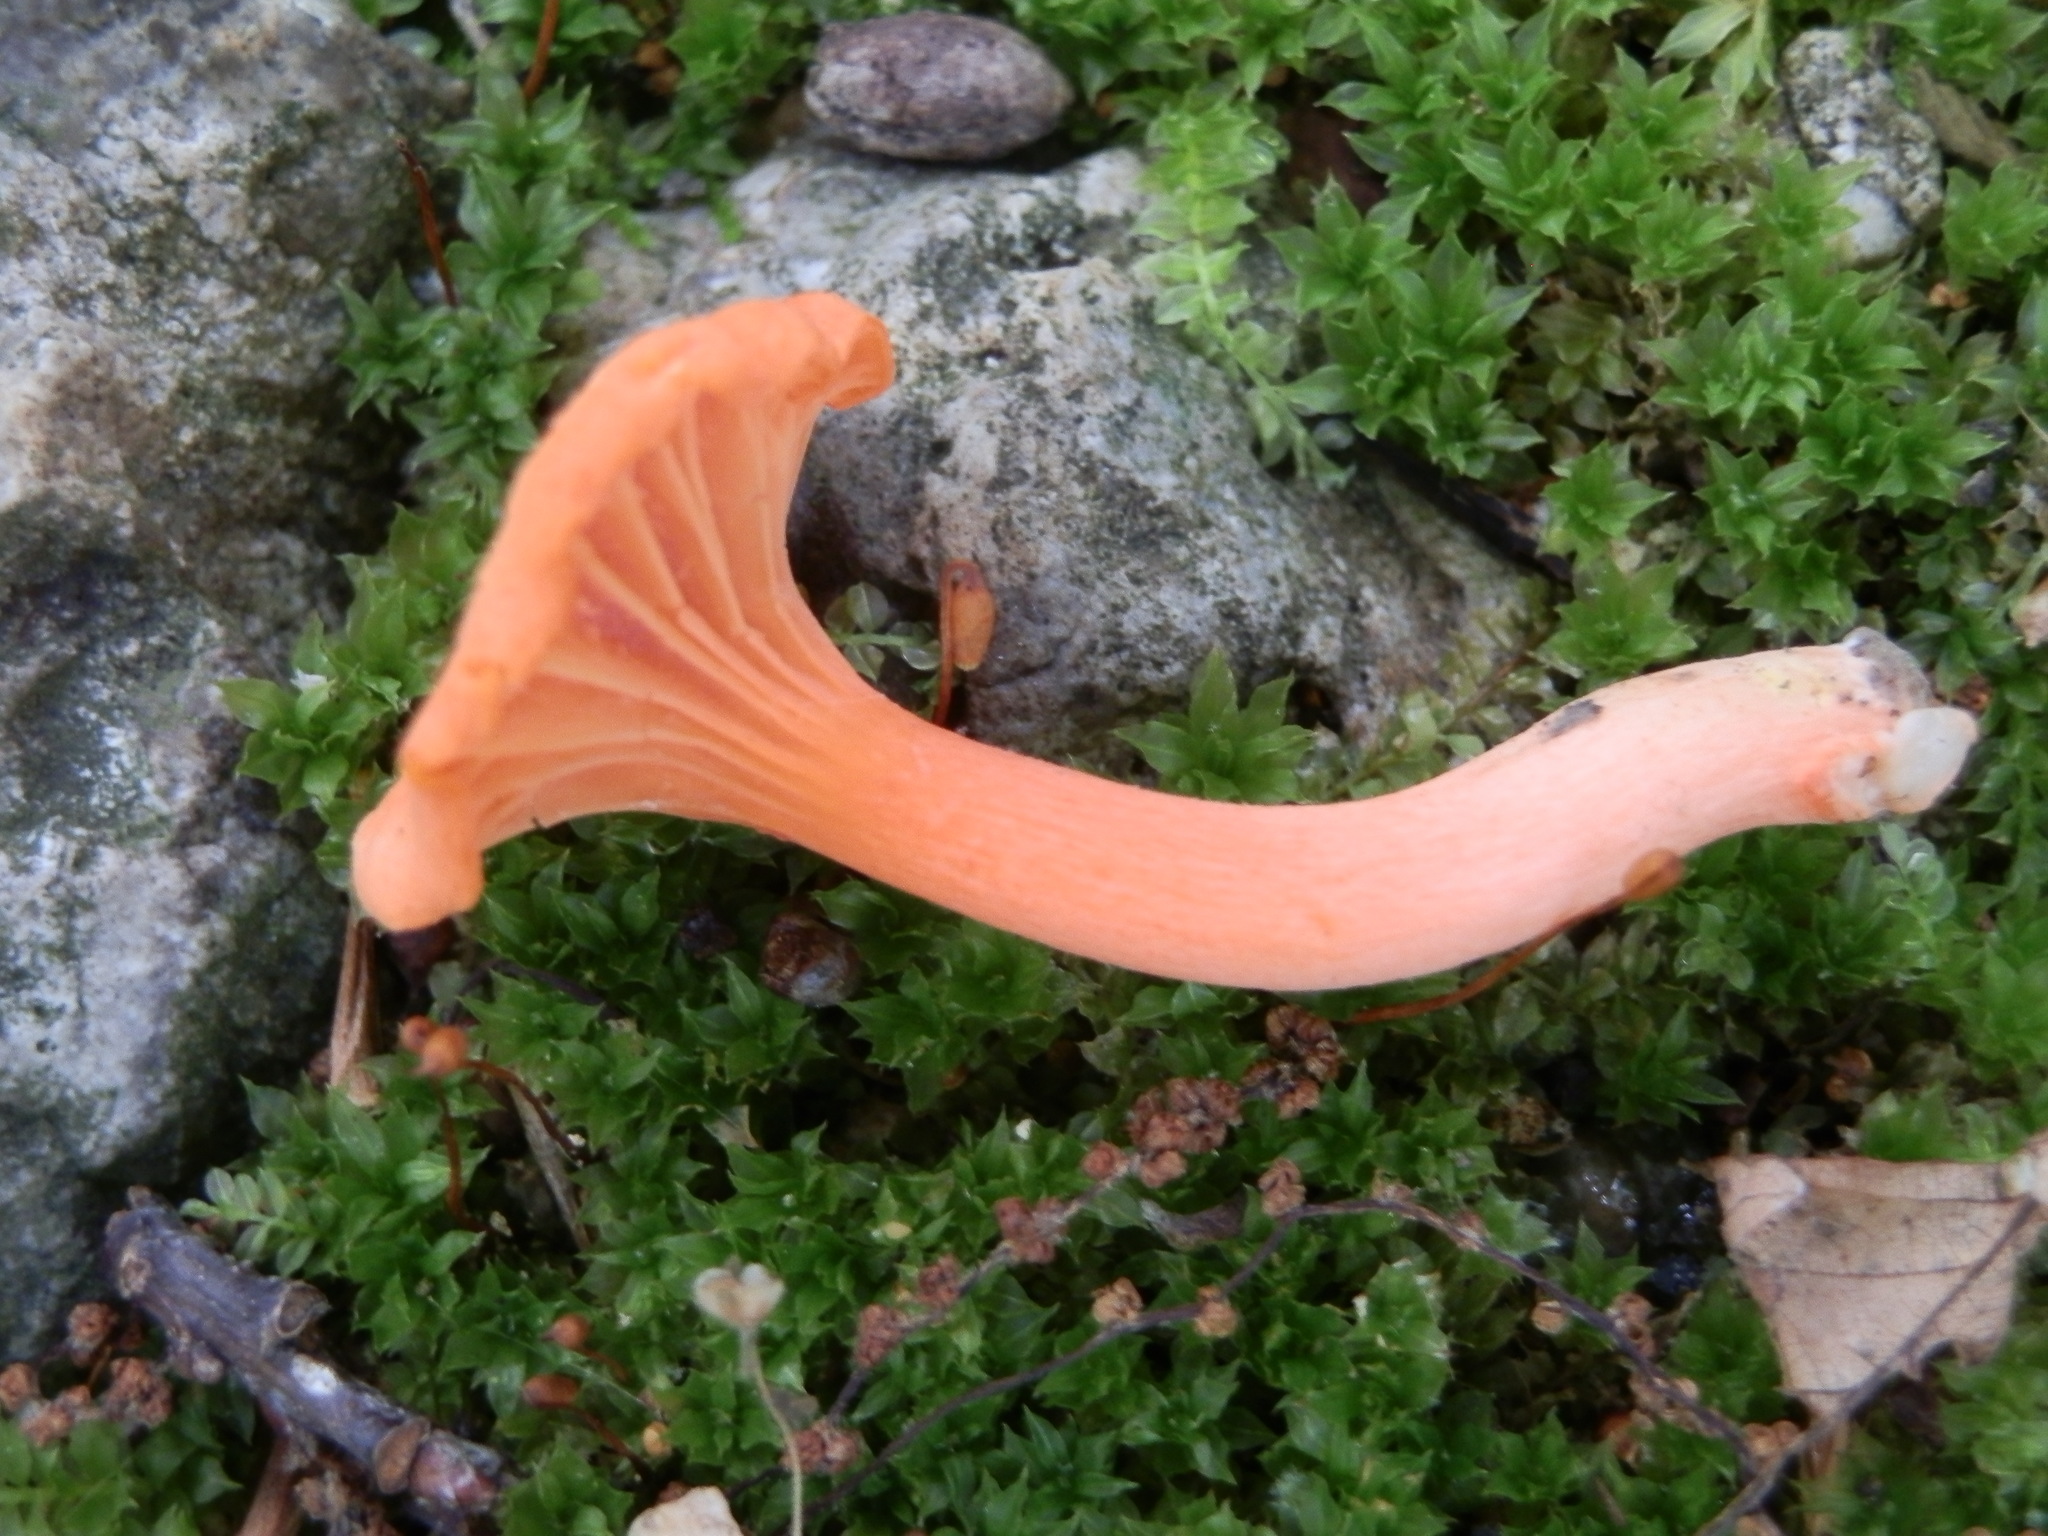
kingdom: Fungi
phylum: Basidiomycota
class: Agaricomycetes
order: Cantharellales
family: Hydnaceae
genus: Cantharellus
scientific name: Cantharellus cinnabarinus
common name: Cinnabar chanterelle
